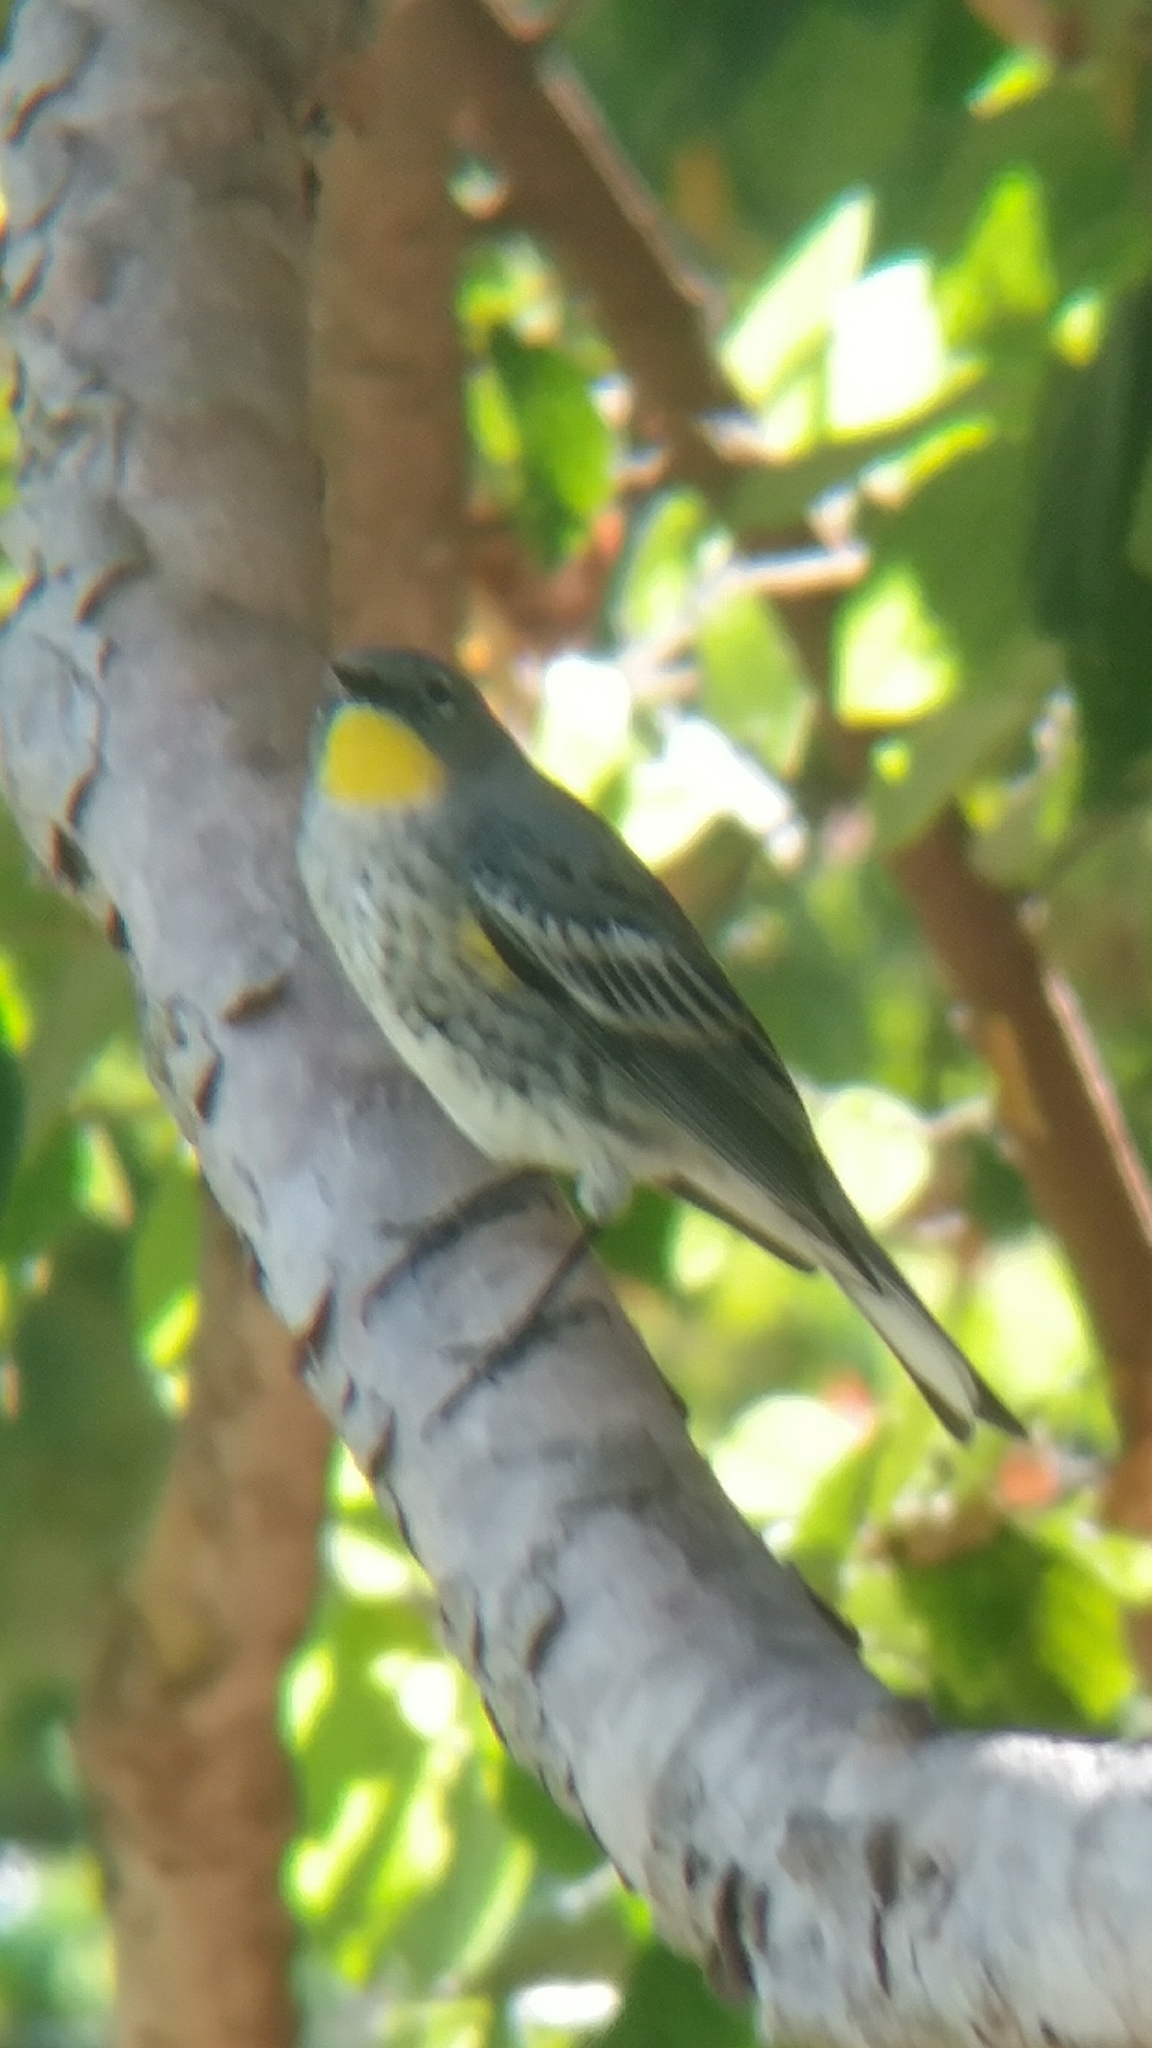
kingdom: Animalia
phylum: Chordata
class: Aves
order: Passeriformes
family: Parulidae
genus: Setophaga
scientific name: Setophaga auduboni
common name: Audubon's warbler
